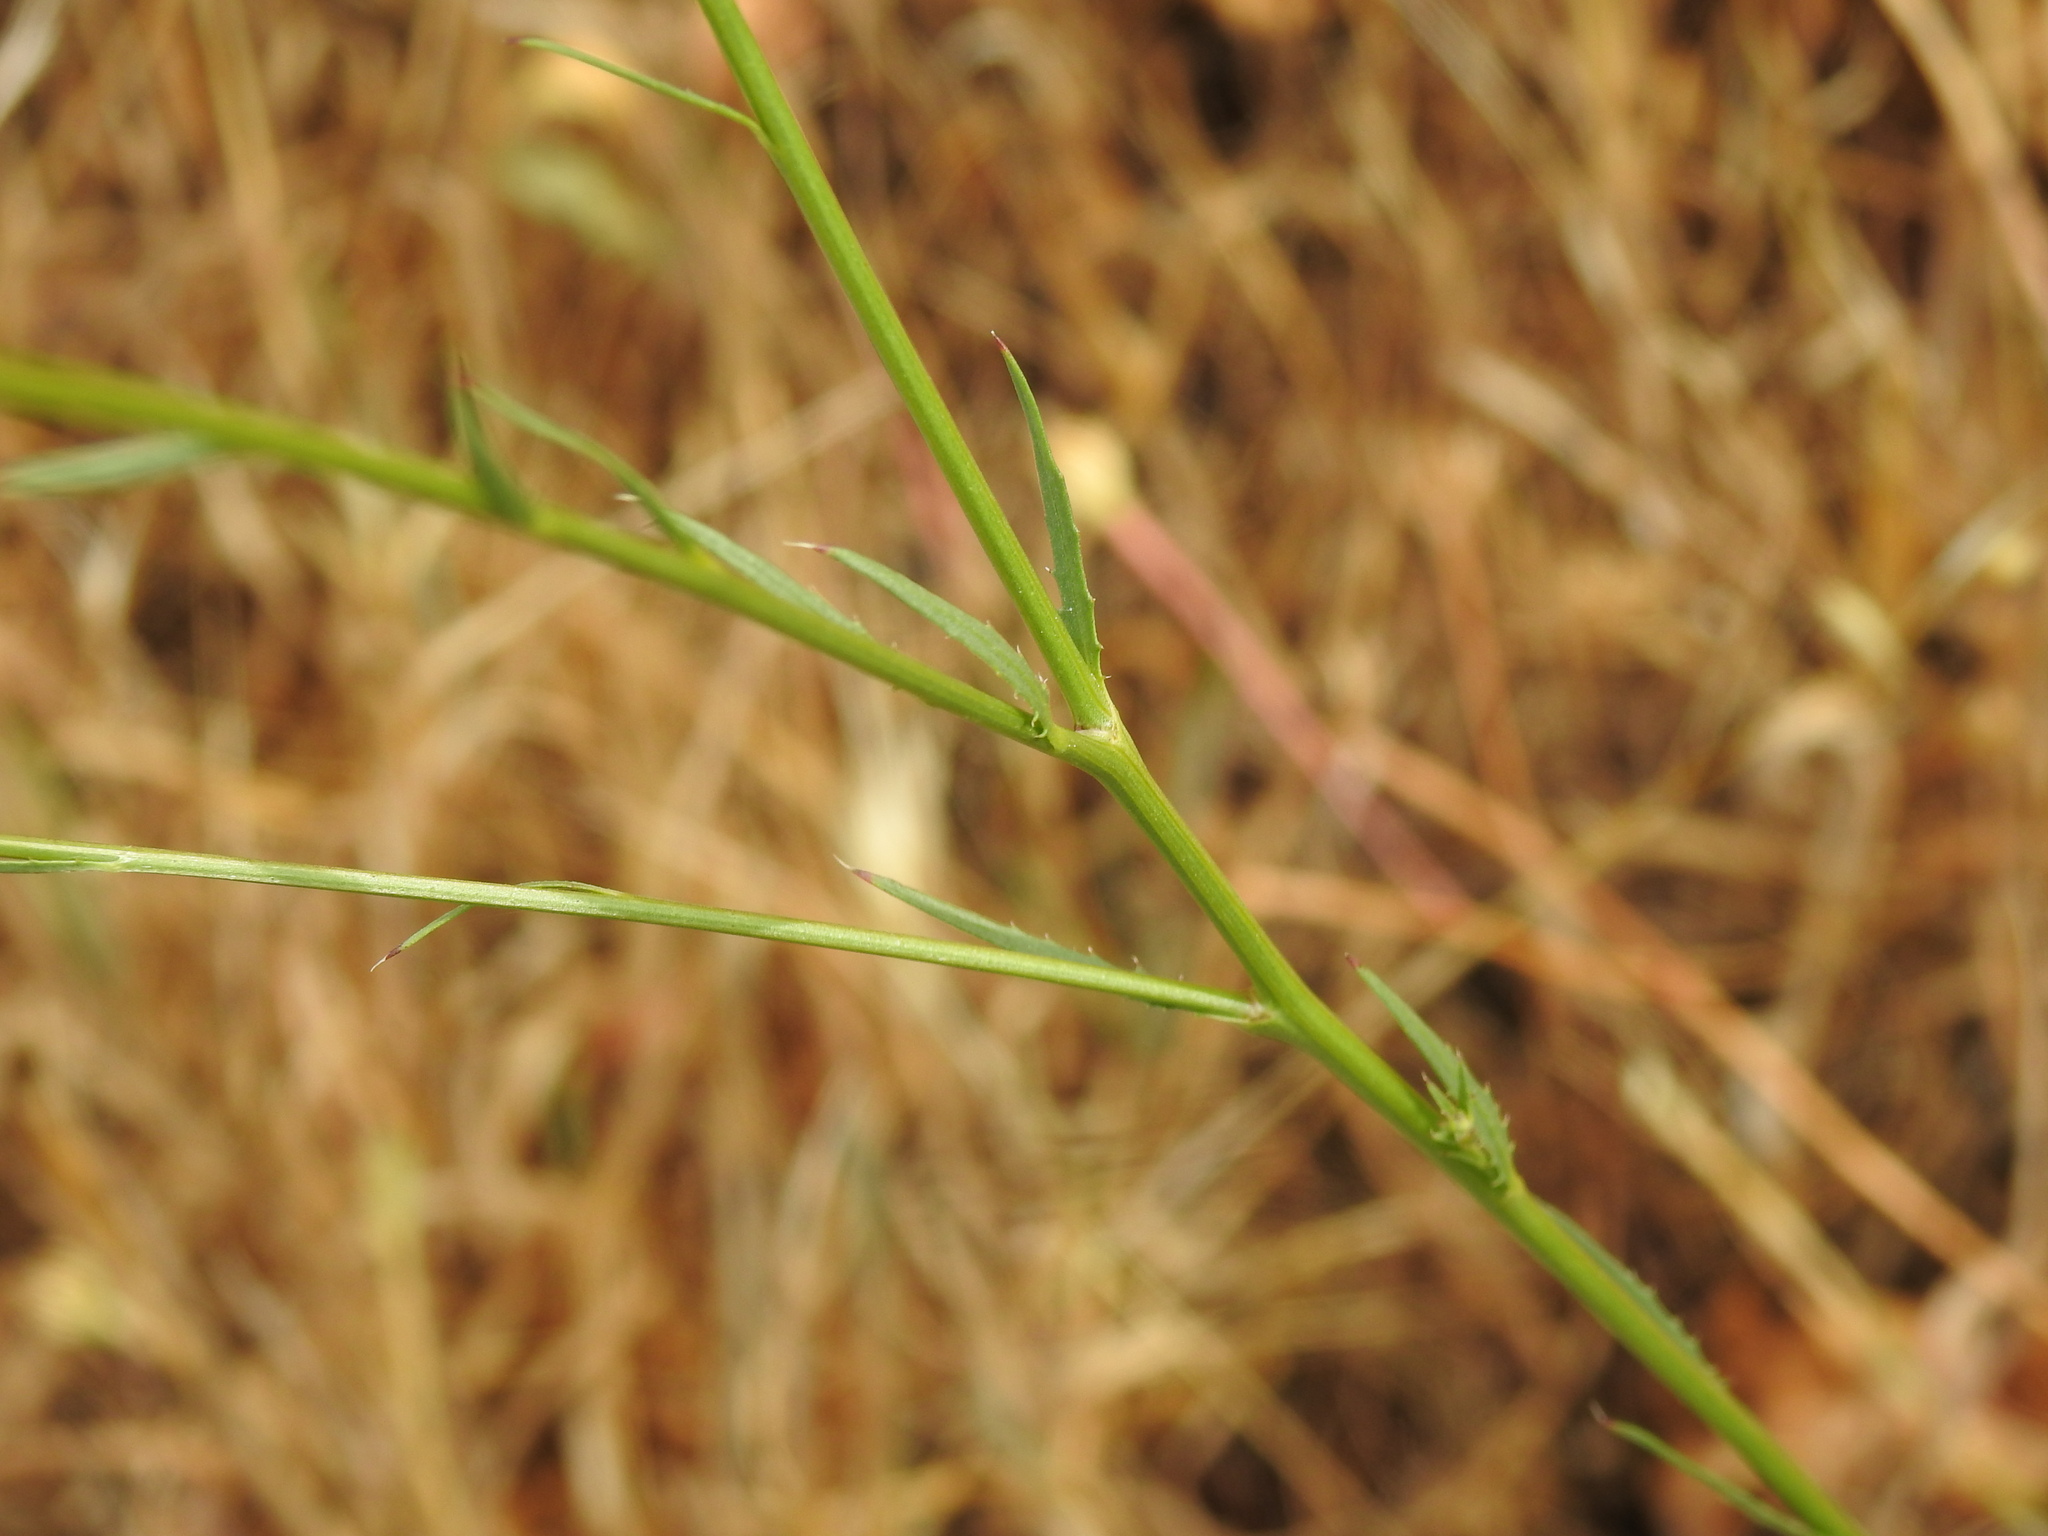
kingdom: Plantae
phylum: Tracheophyta
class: Magnoliopsida
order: Asterales
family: Asteraceae
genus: Mantisalca
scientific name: Mantisalca salmantica
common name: Dagger flower
